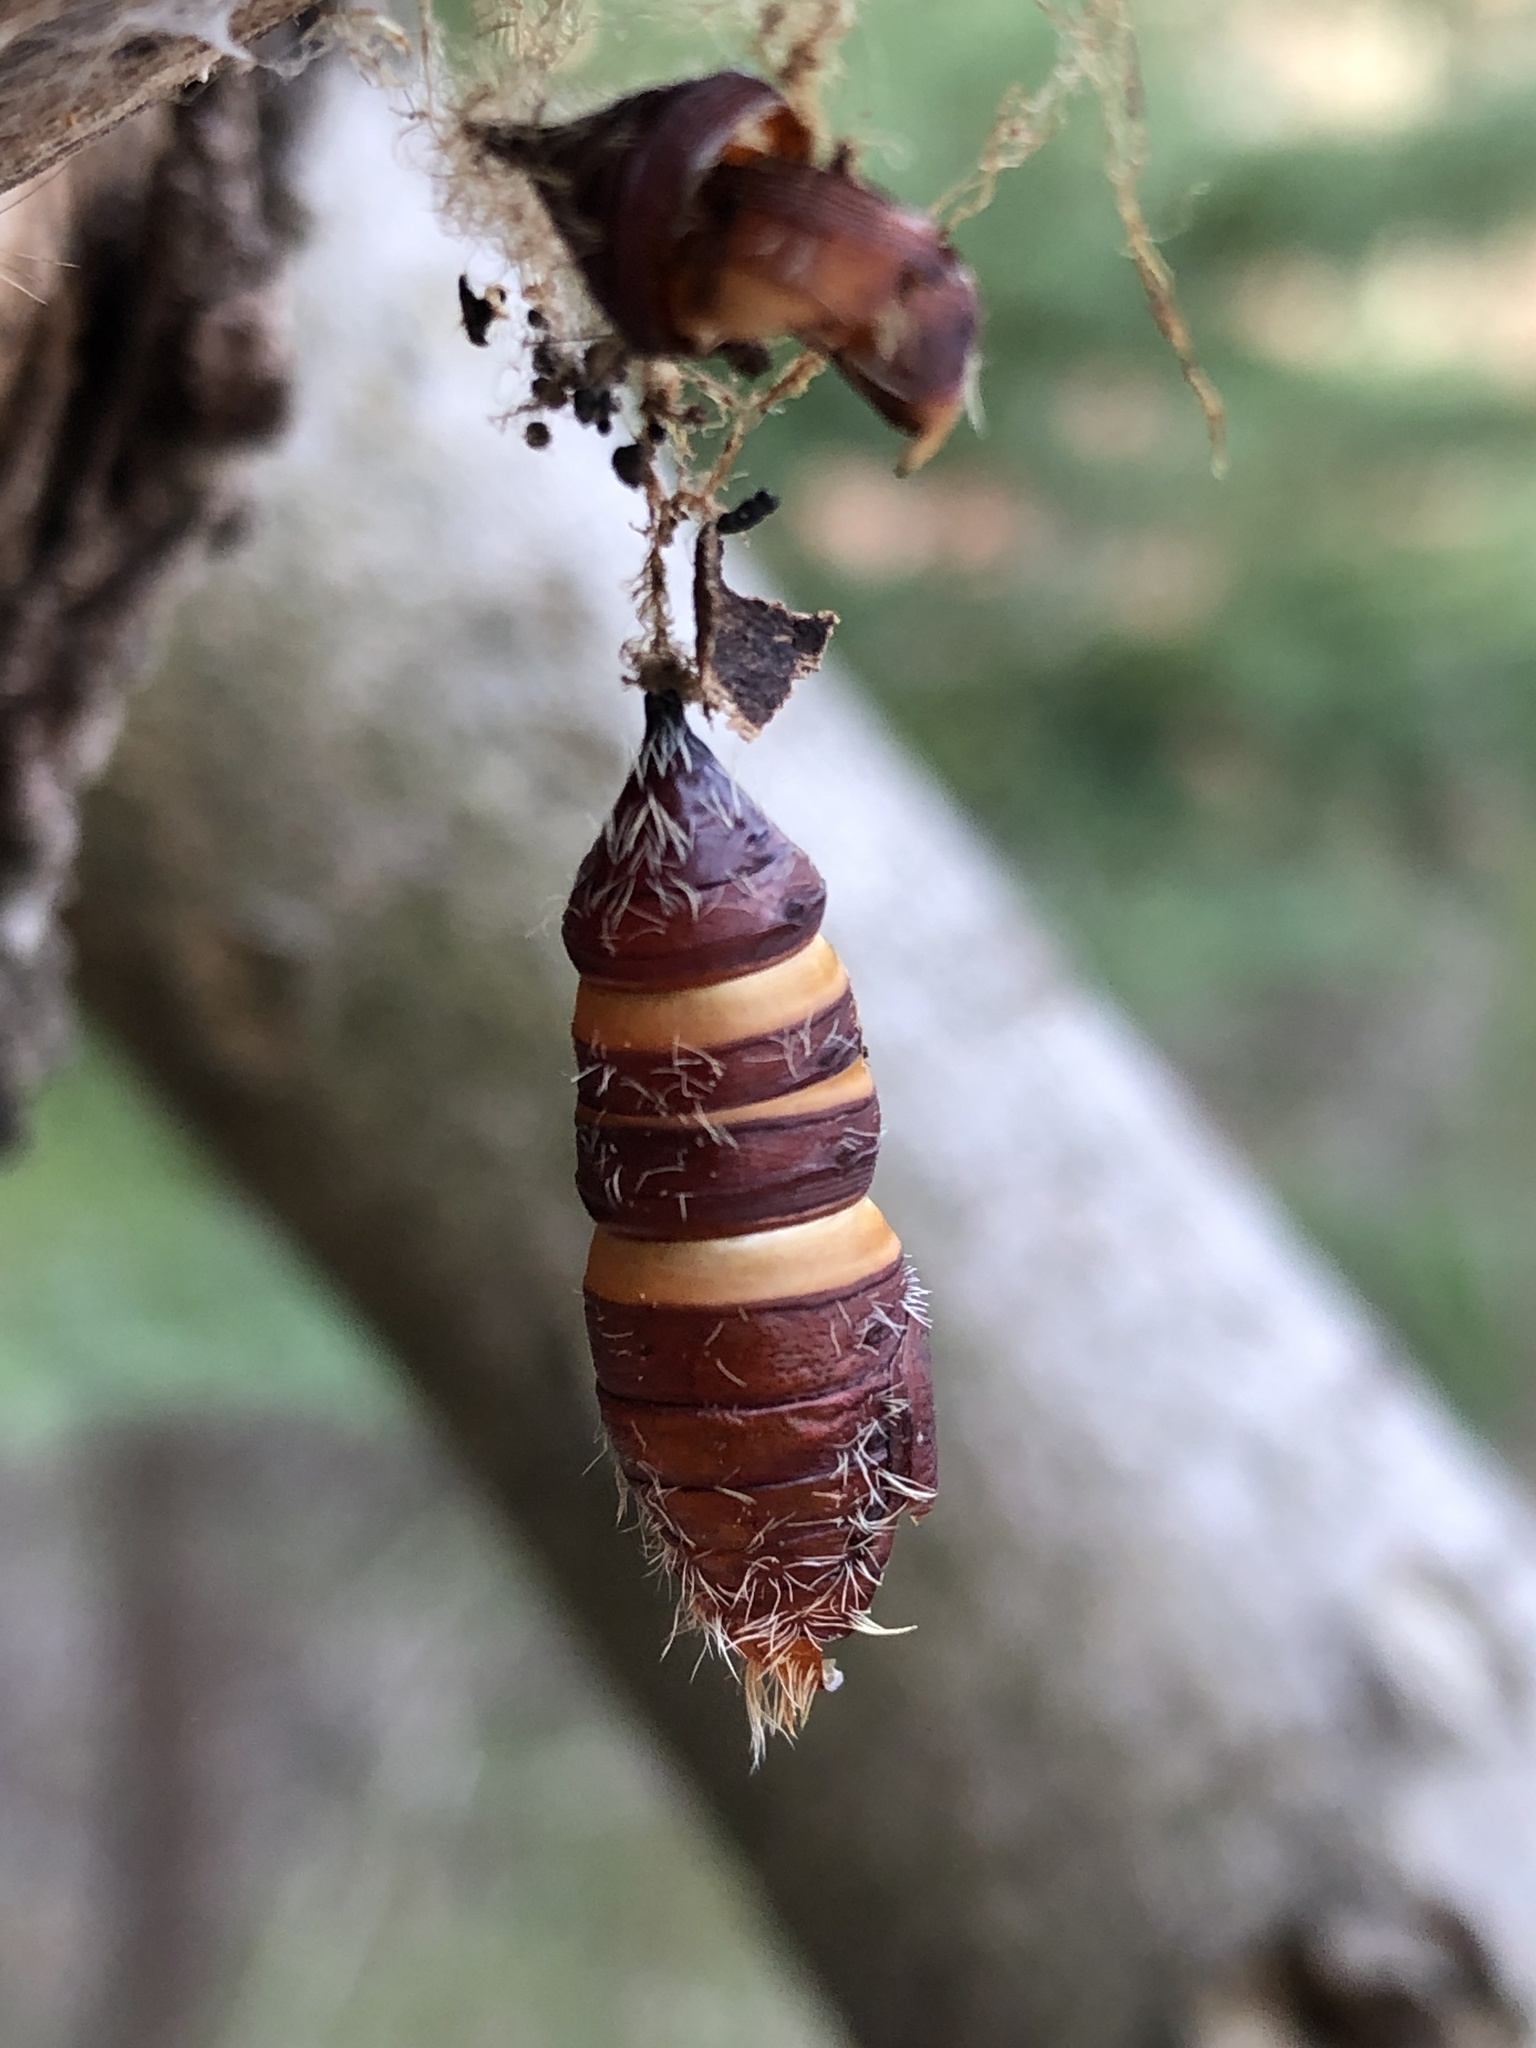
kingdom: Animalia
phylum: Arthropoda
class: Insecta
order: Lepidoptera
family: Erebidae
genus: Lymantria
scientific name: Lymantria dispar
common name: Gypsy moth
